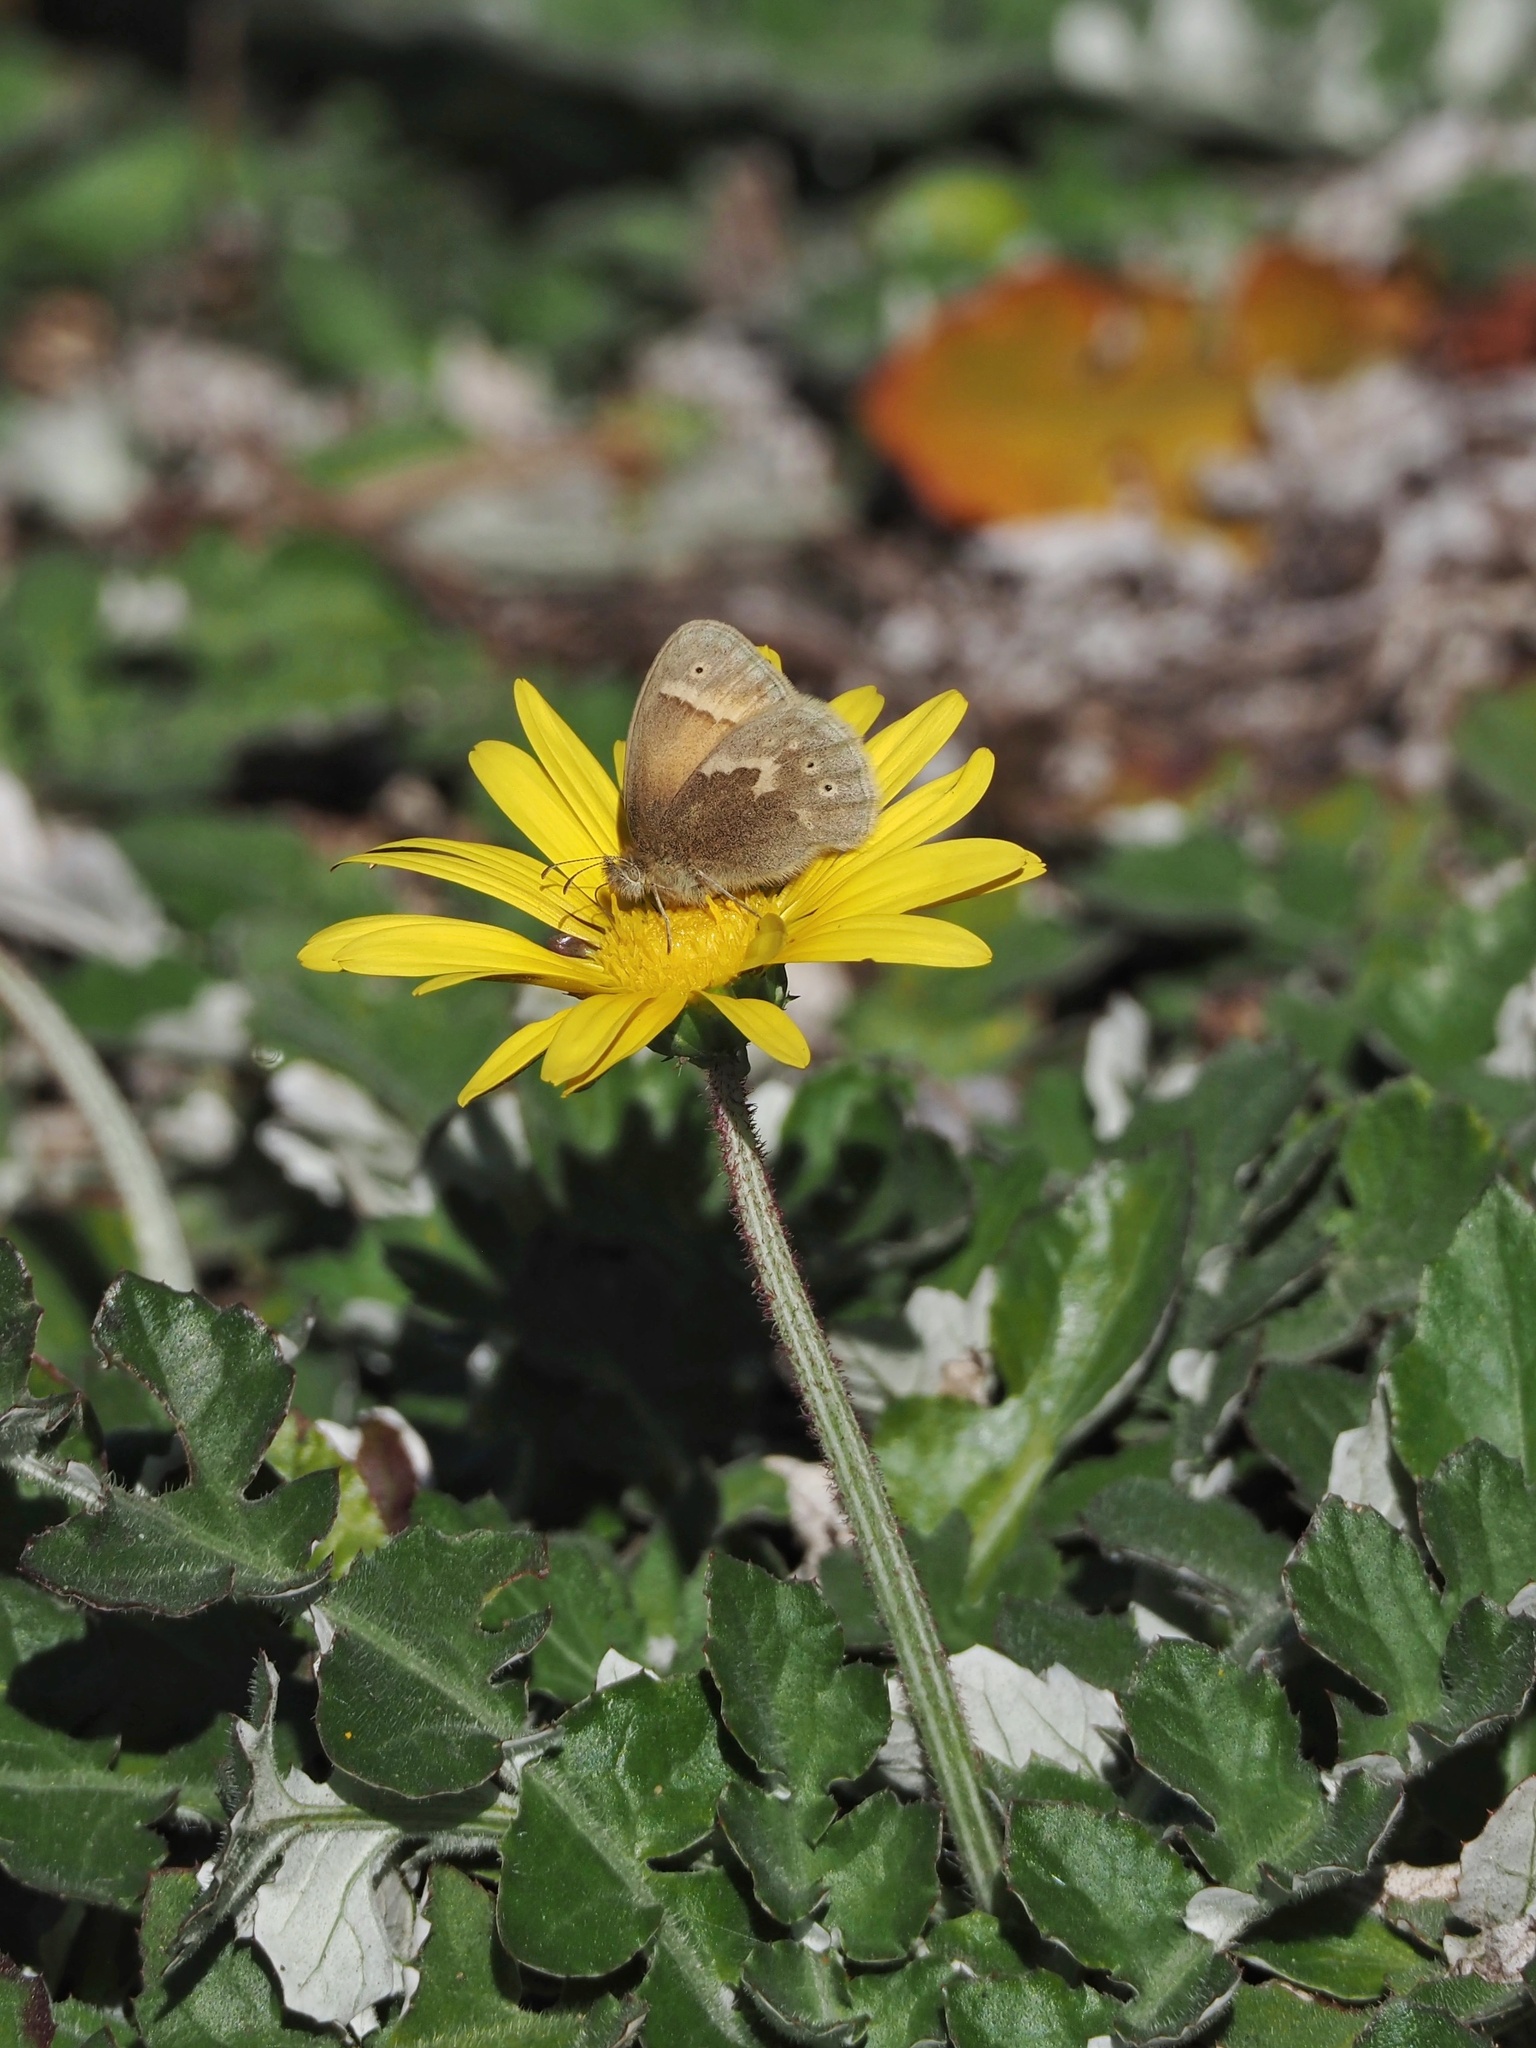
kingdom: Animalia
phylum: Arthropoda
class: Insecta
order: Lepidoptera
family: Nymphalidae
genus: Coenonympha
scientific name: Coenonympha california
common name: Common ringlet
